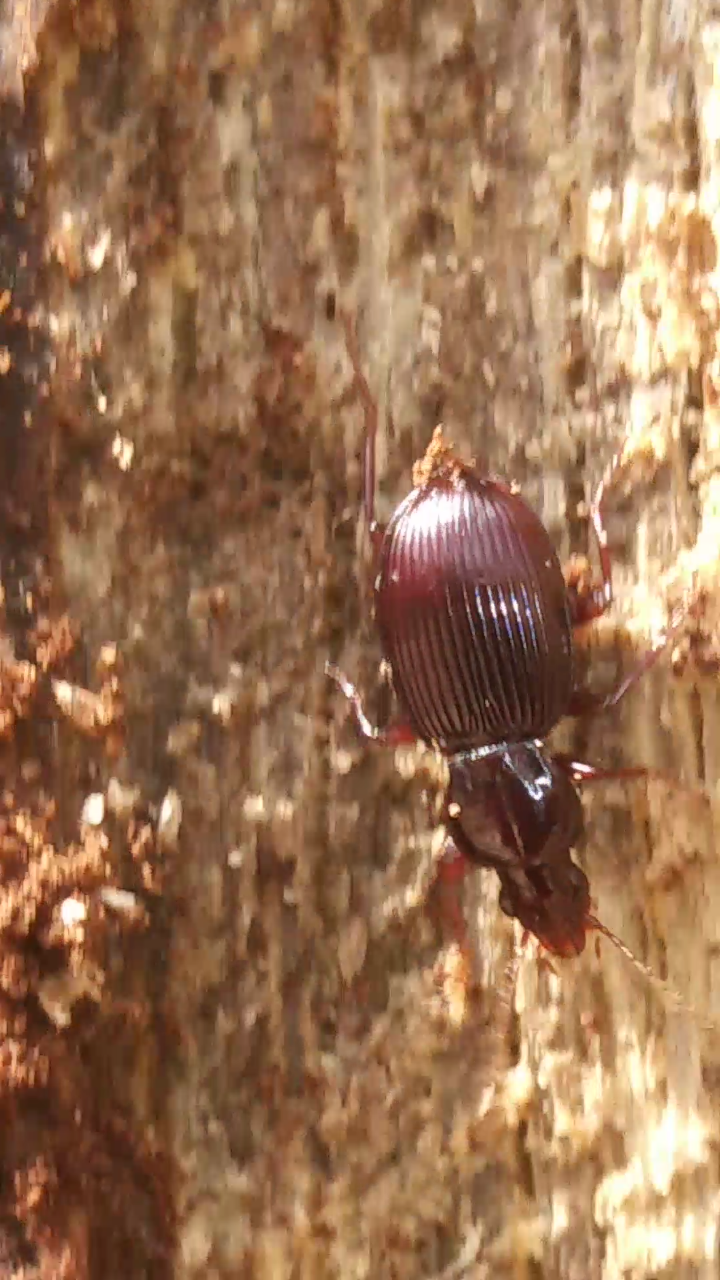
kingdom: Animalia
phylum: Arthropoda
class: Insecta
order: Coleoptera
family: Carabidae
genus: Gastrellarius
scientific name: Gastrellarius honestus
